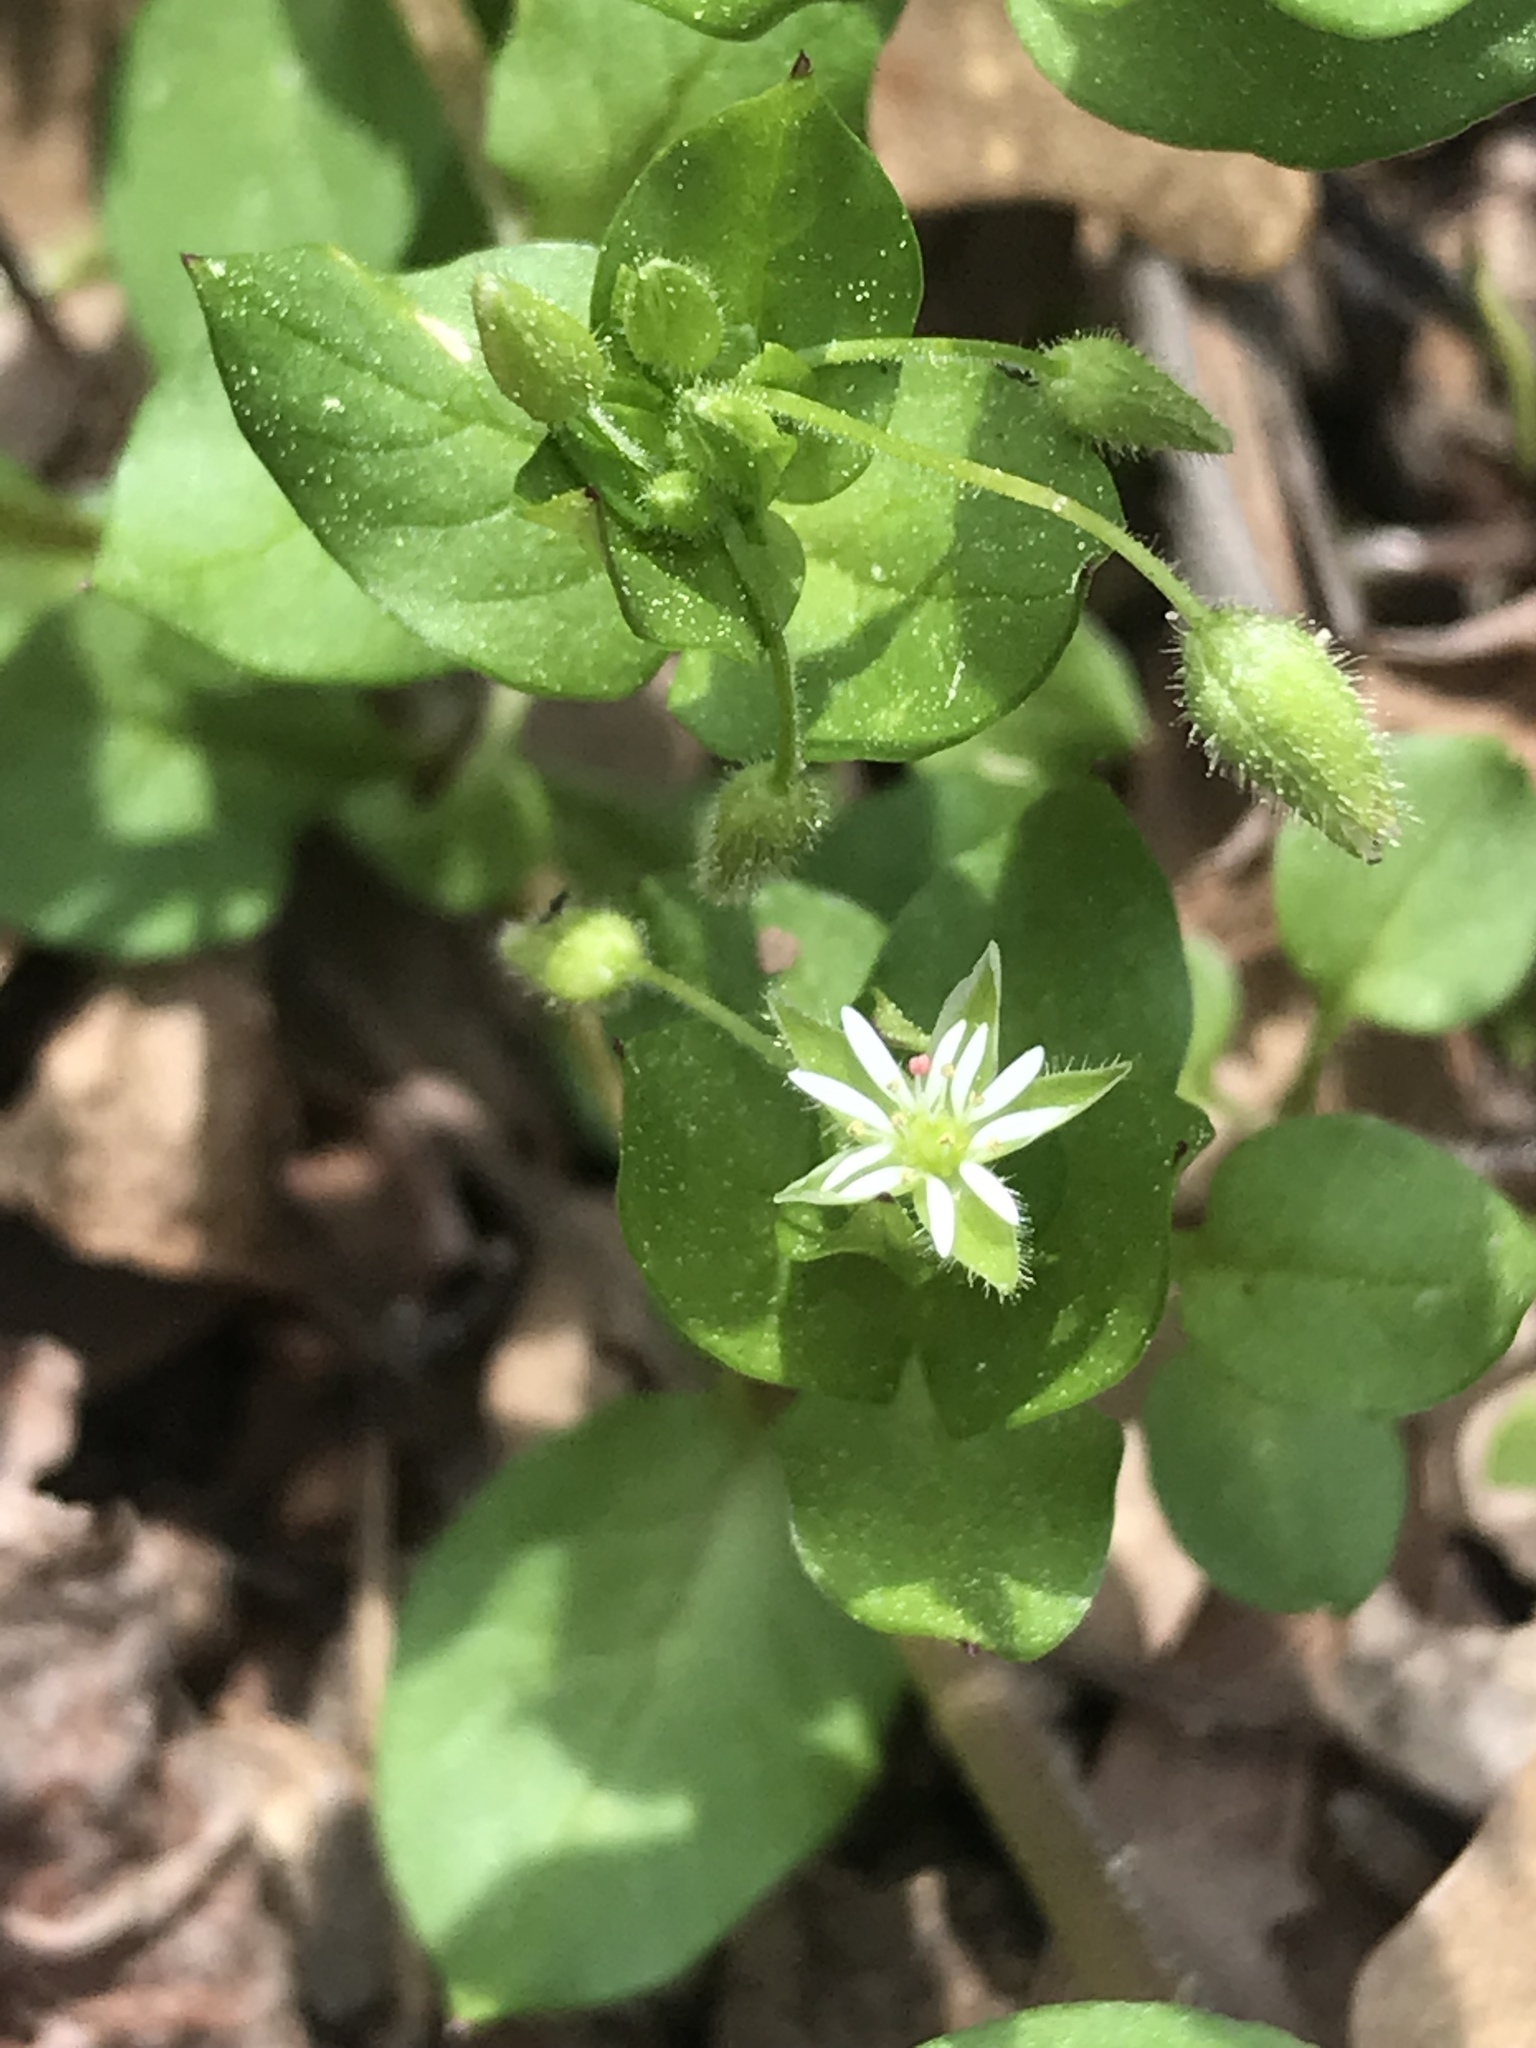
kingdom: Plantae
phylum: Tracheophyta
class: Magnoliopsida
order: Caryophyllales
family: Caryophyllaceae
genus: Stellaria
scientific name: Stellaria media
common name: Common chickweed
